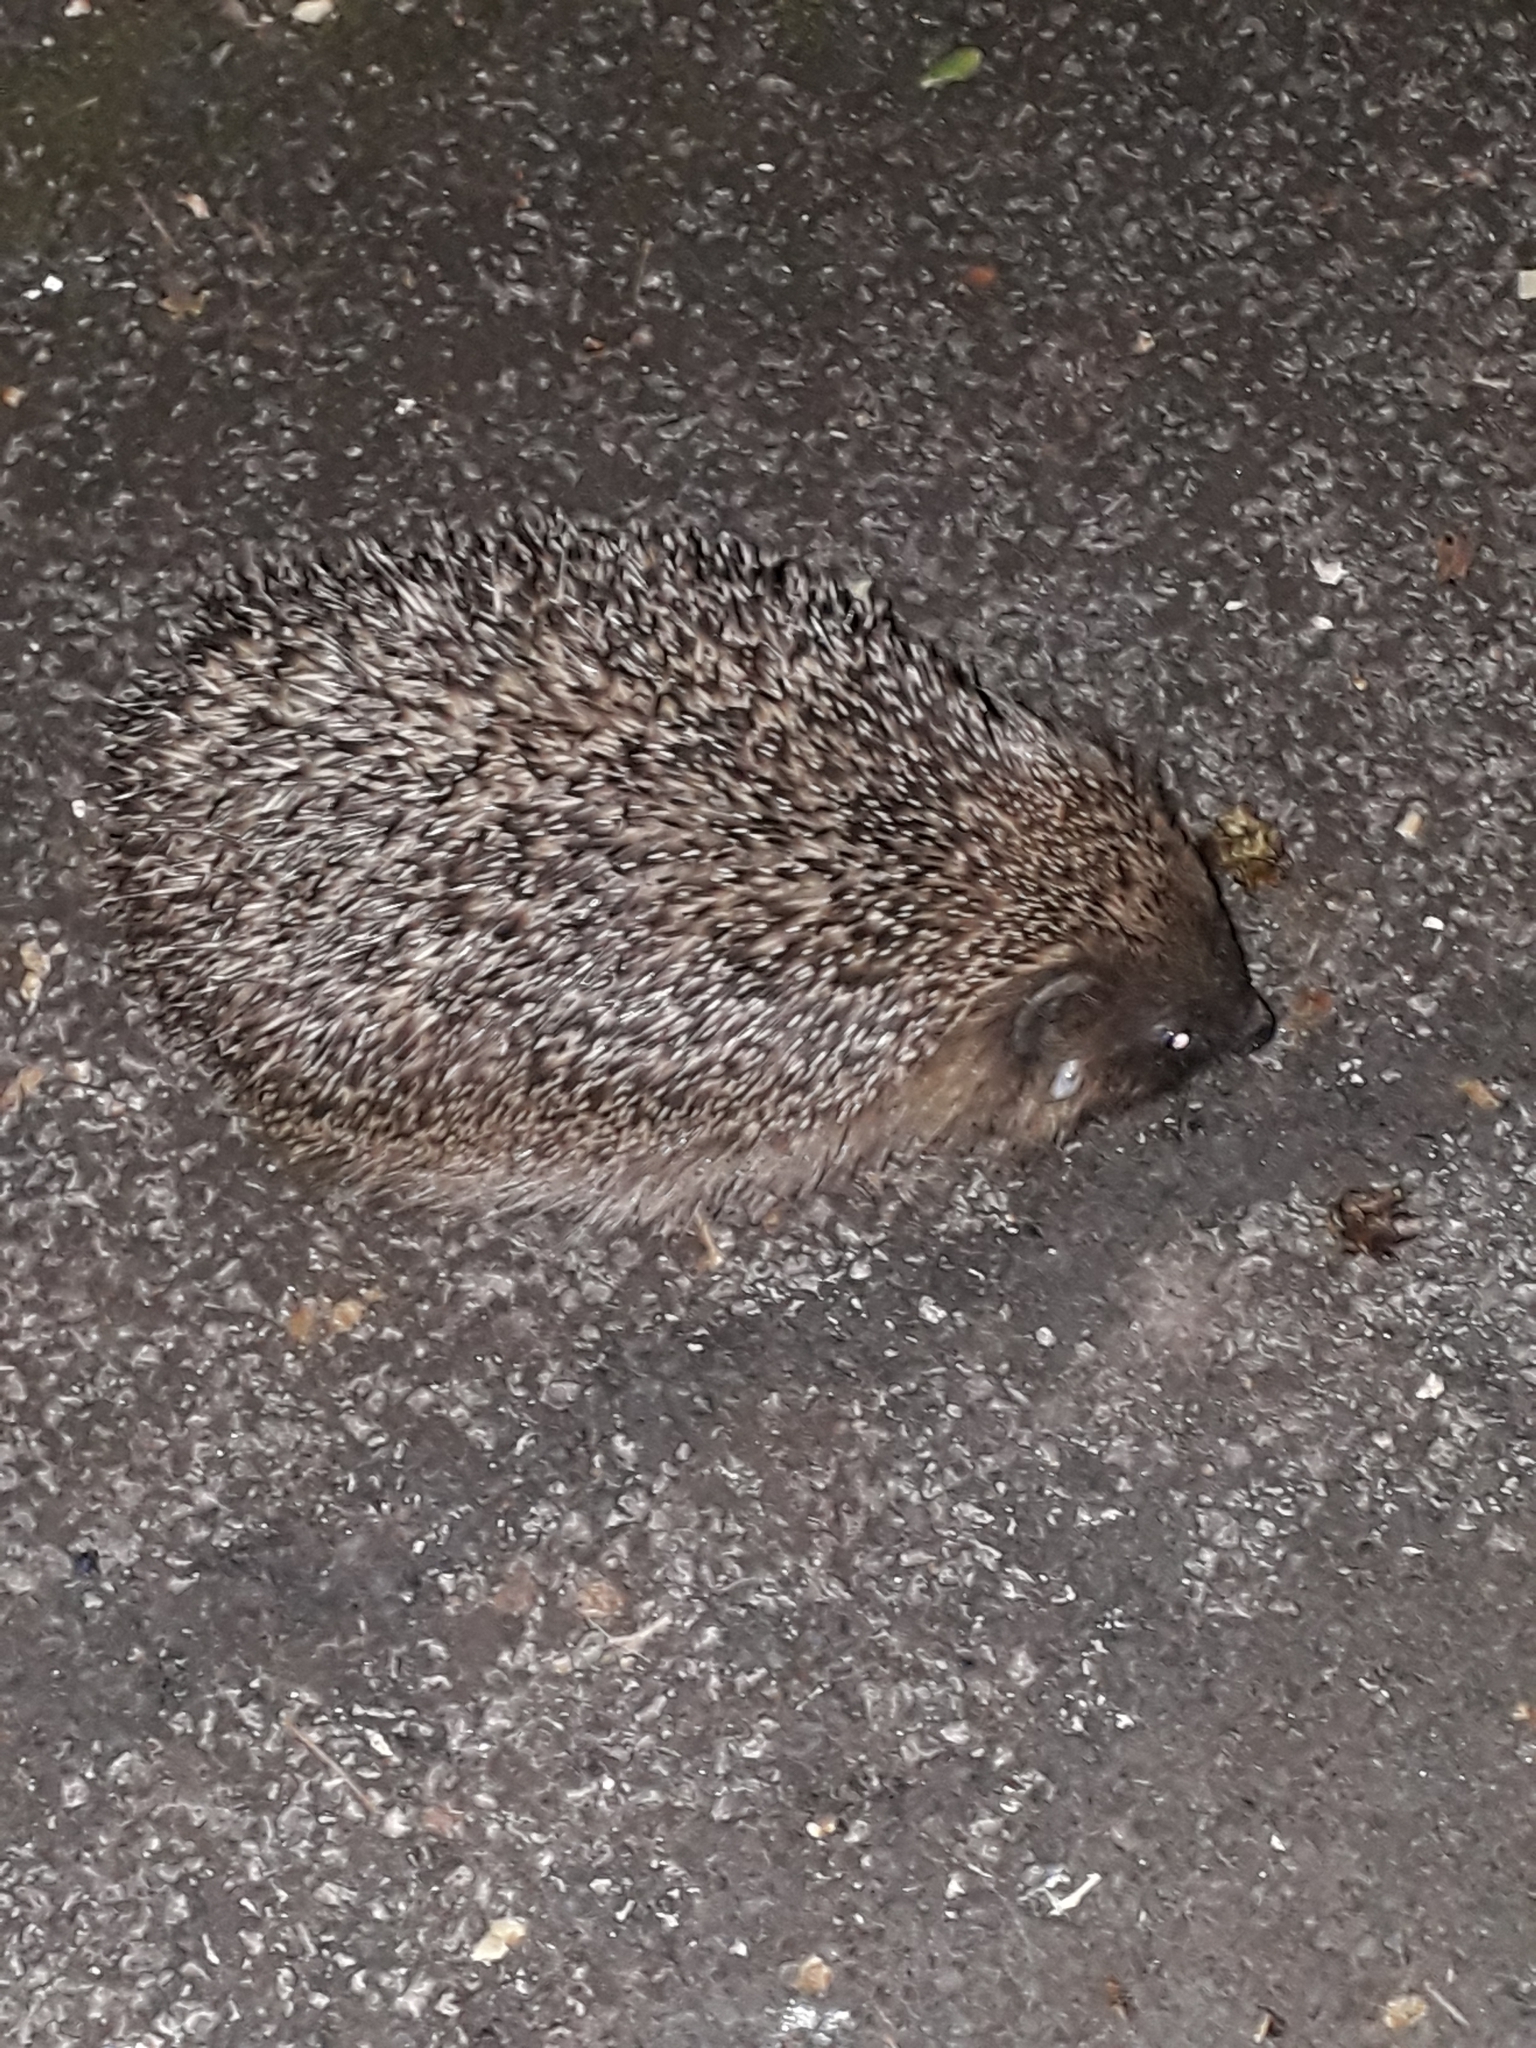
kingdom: Animalia
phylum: Chordata
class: Mammalia
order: Erinaceomorpha
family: Erinaceidae
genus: Erinaceus
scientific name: Erinaceus europaeus
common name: West european hedgehog
